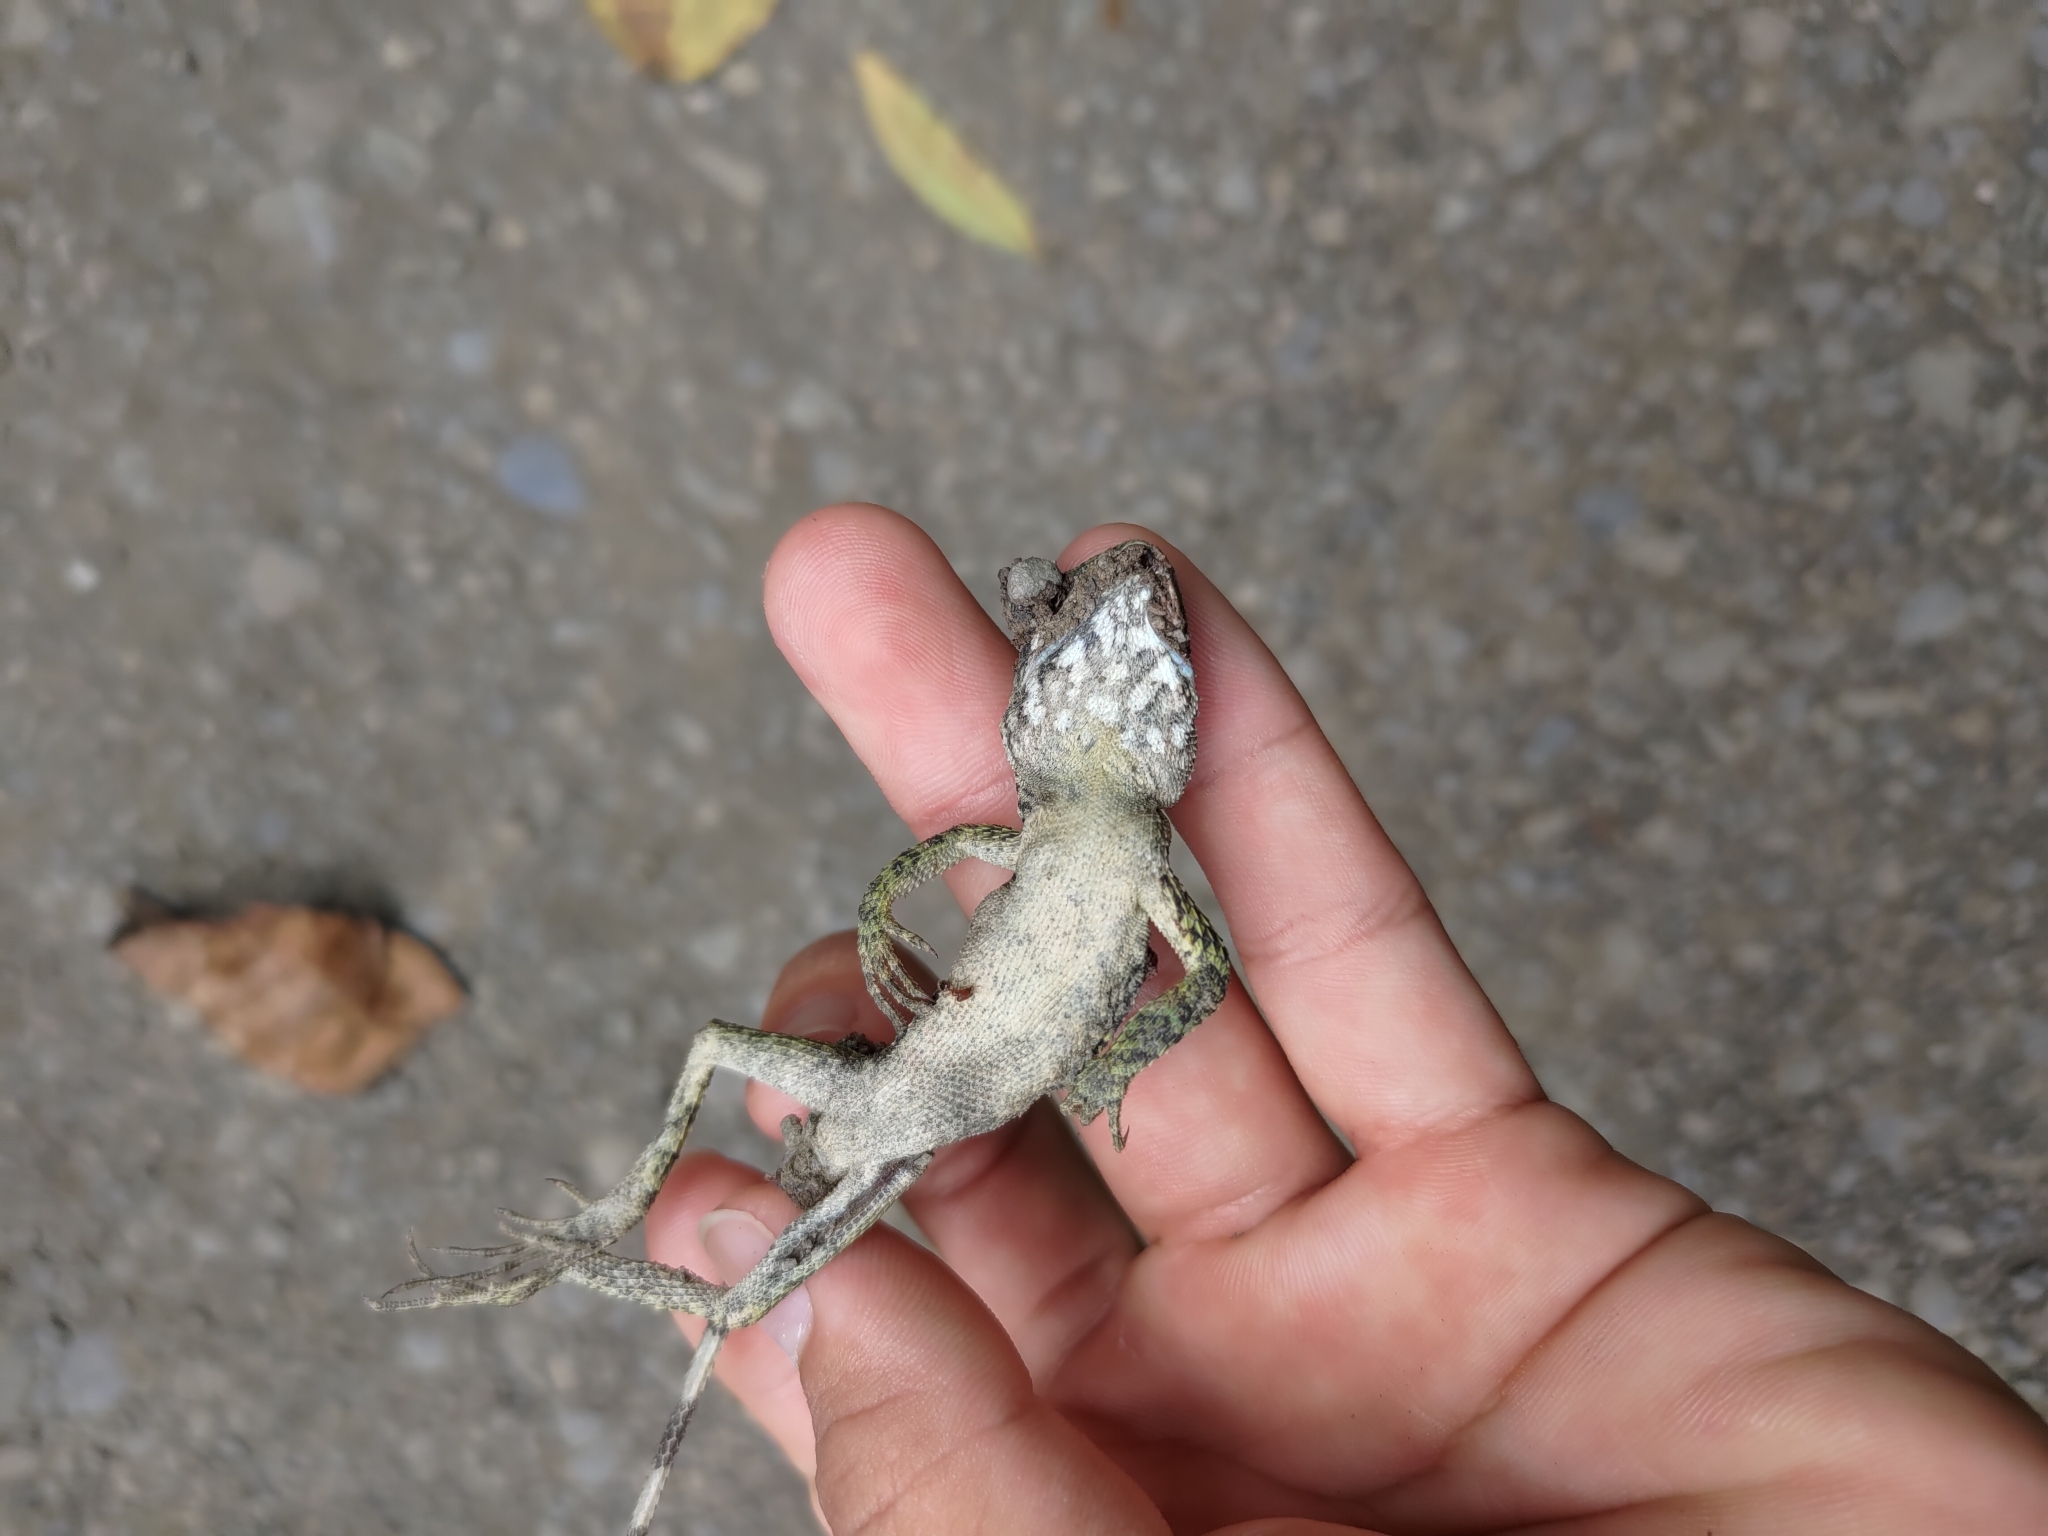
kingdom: Animalia
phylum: Chordata
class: Squamata
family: Agamidae
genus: Diploderma
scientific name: Diploderma swinhonis
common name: Taiwan japalure
